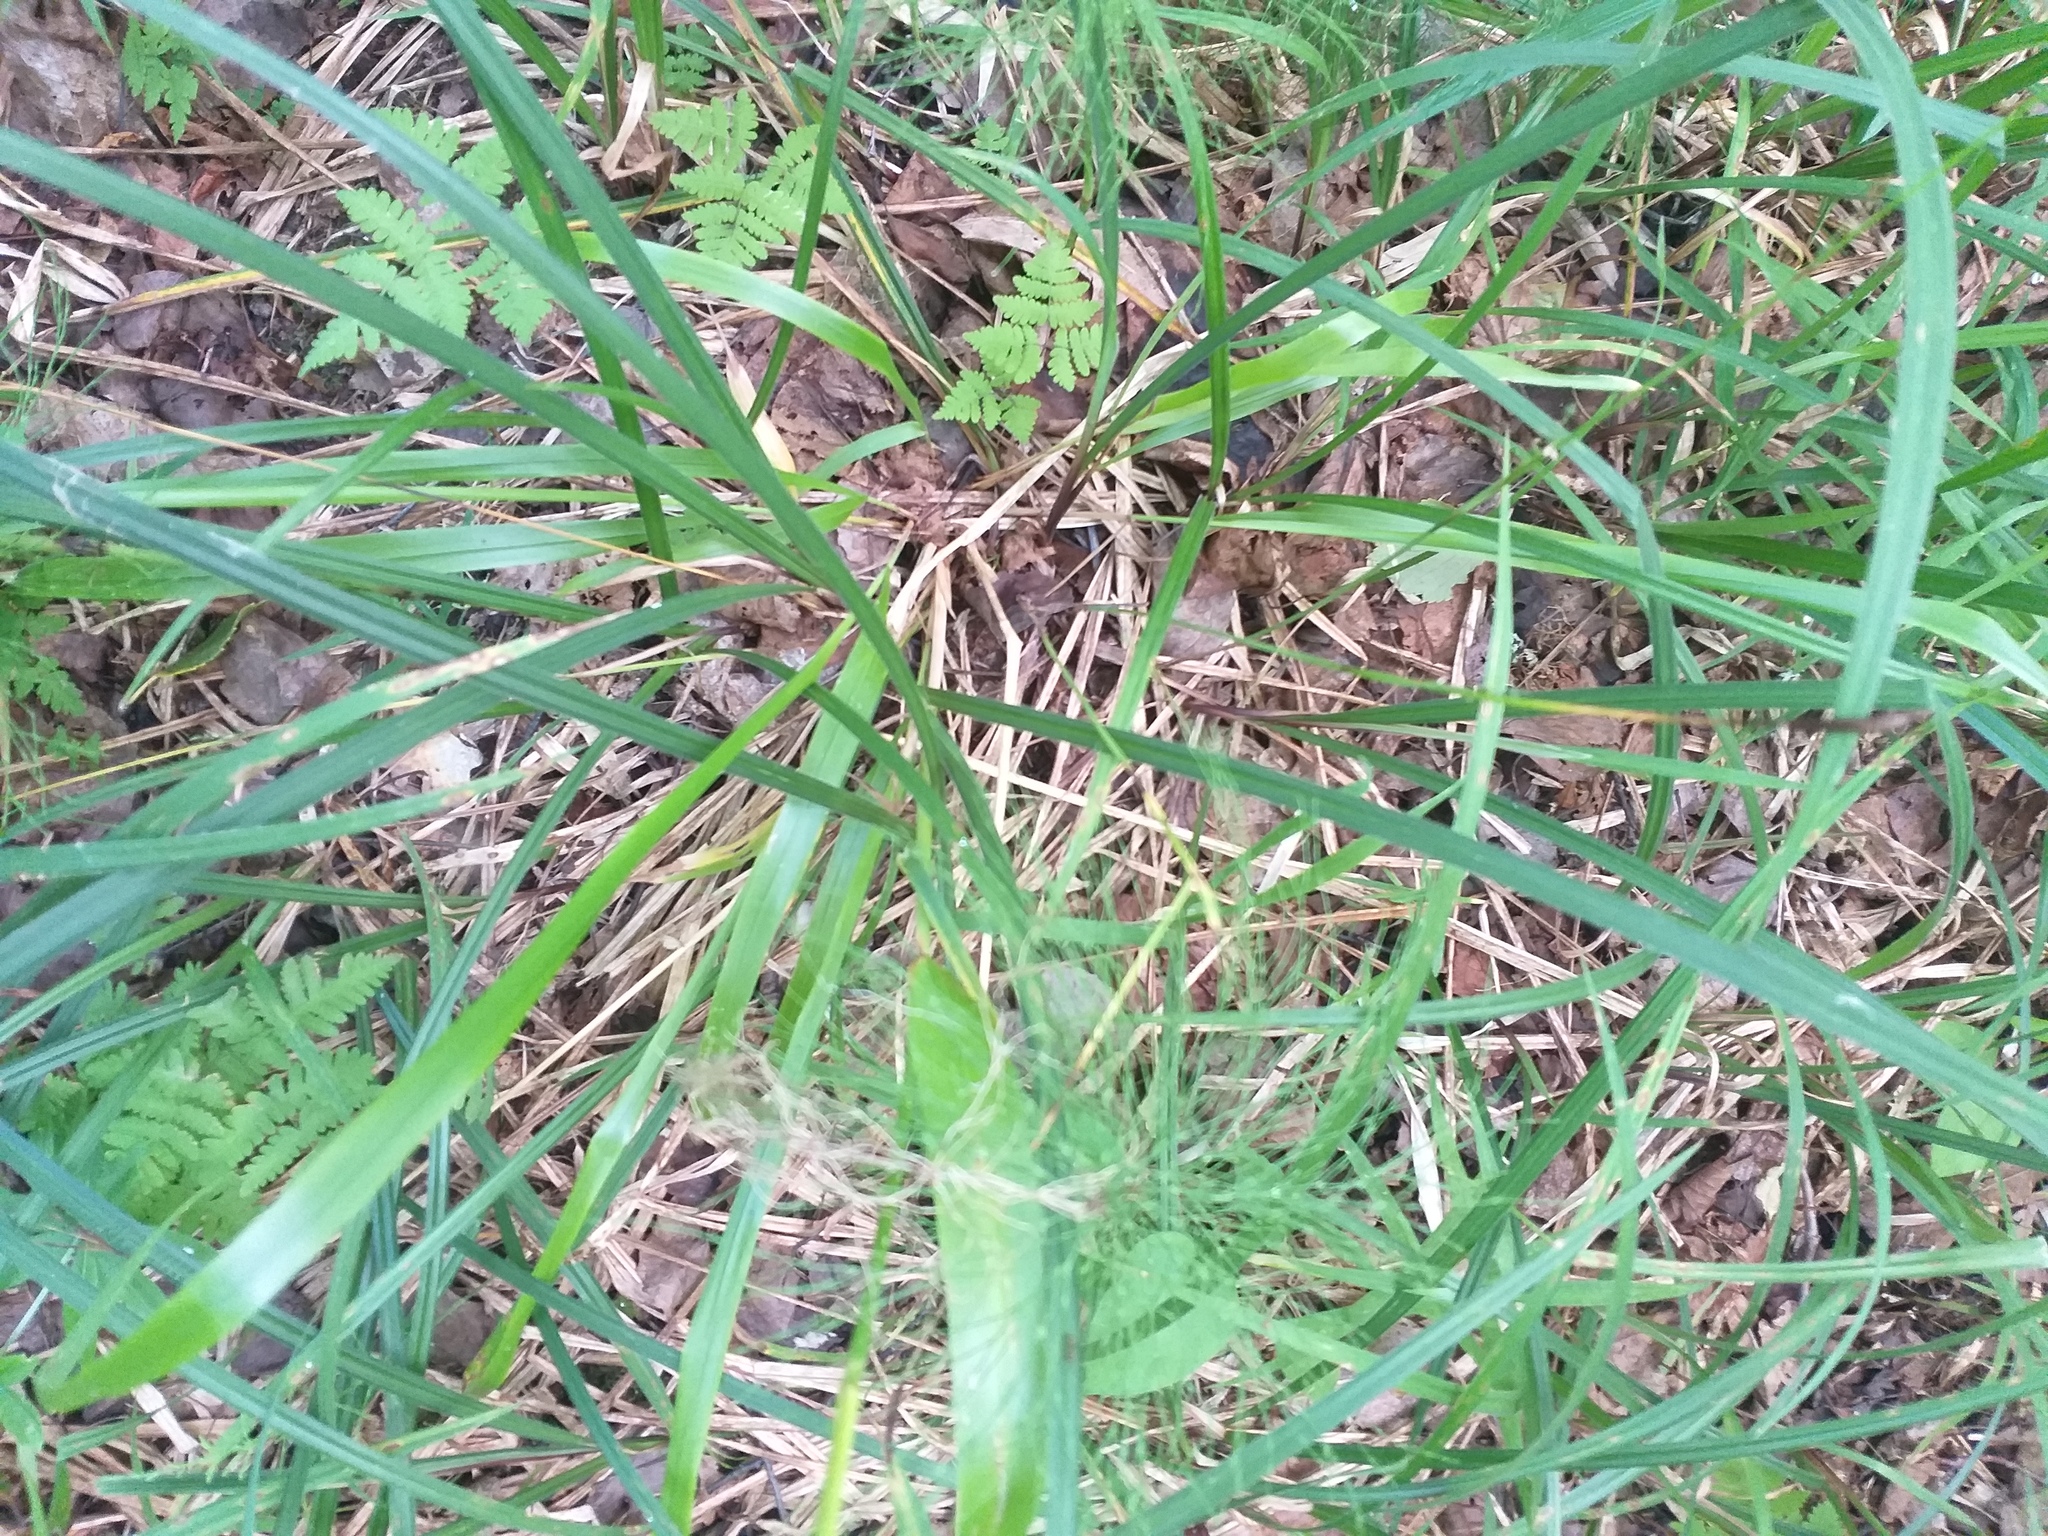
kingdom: Plantae
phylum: Tracheophyta
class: Liliopsida
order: Poales
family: Poaceae
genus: Festuca
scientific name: Festuca altissima
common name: Wood fescue
